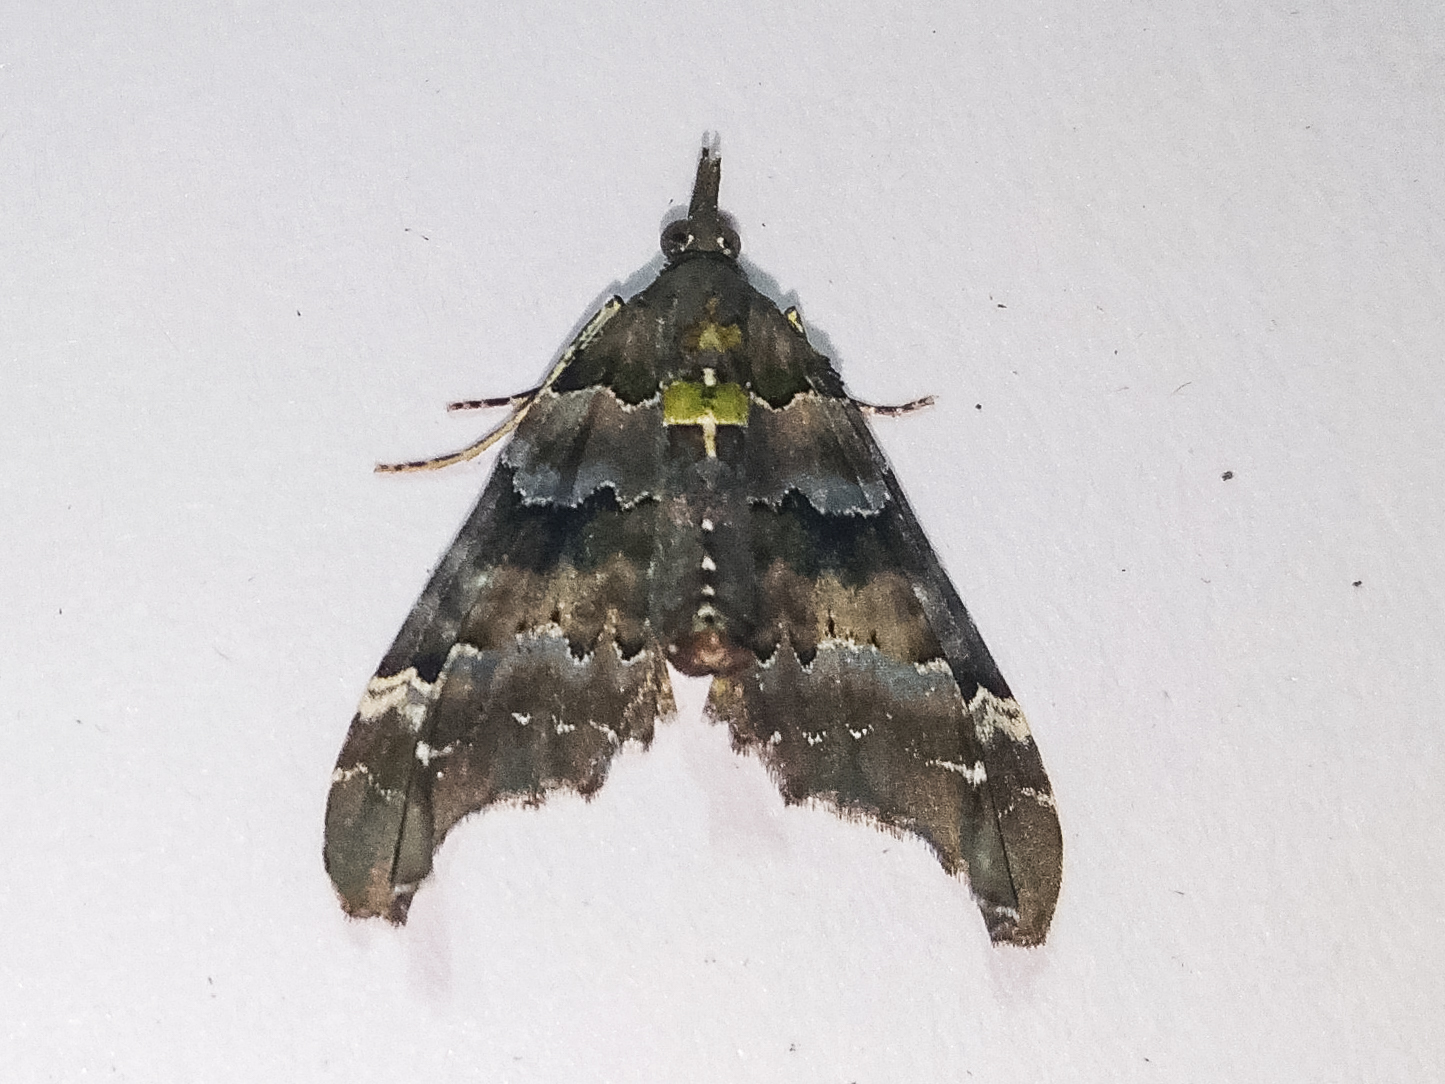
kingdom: Animalia
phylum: Arthropoda
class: Insecta
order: Lepidoptera
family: Geometridae
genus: Elvia
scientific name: Elvia glaucata
